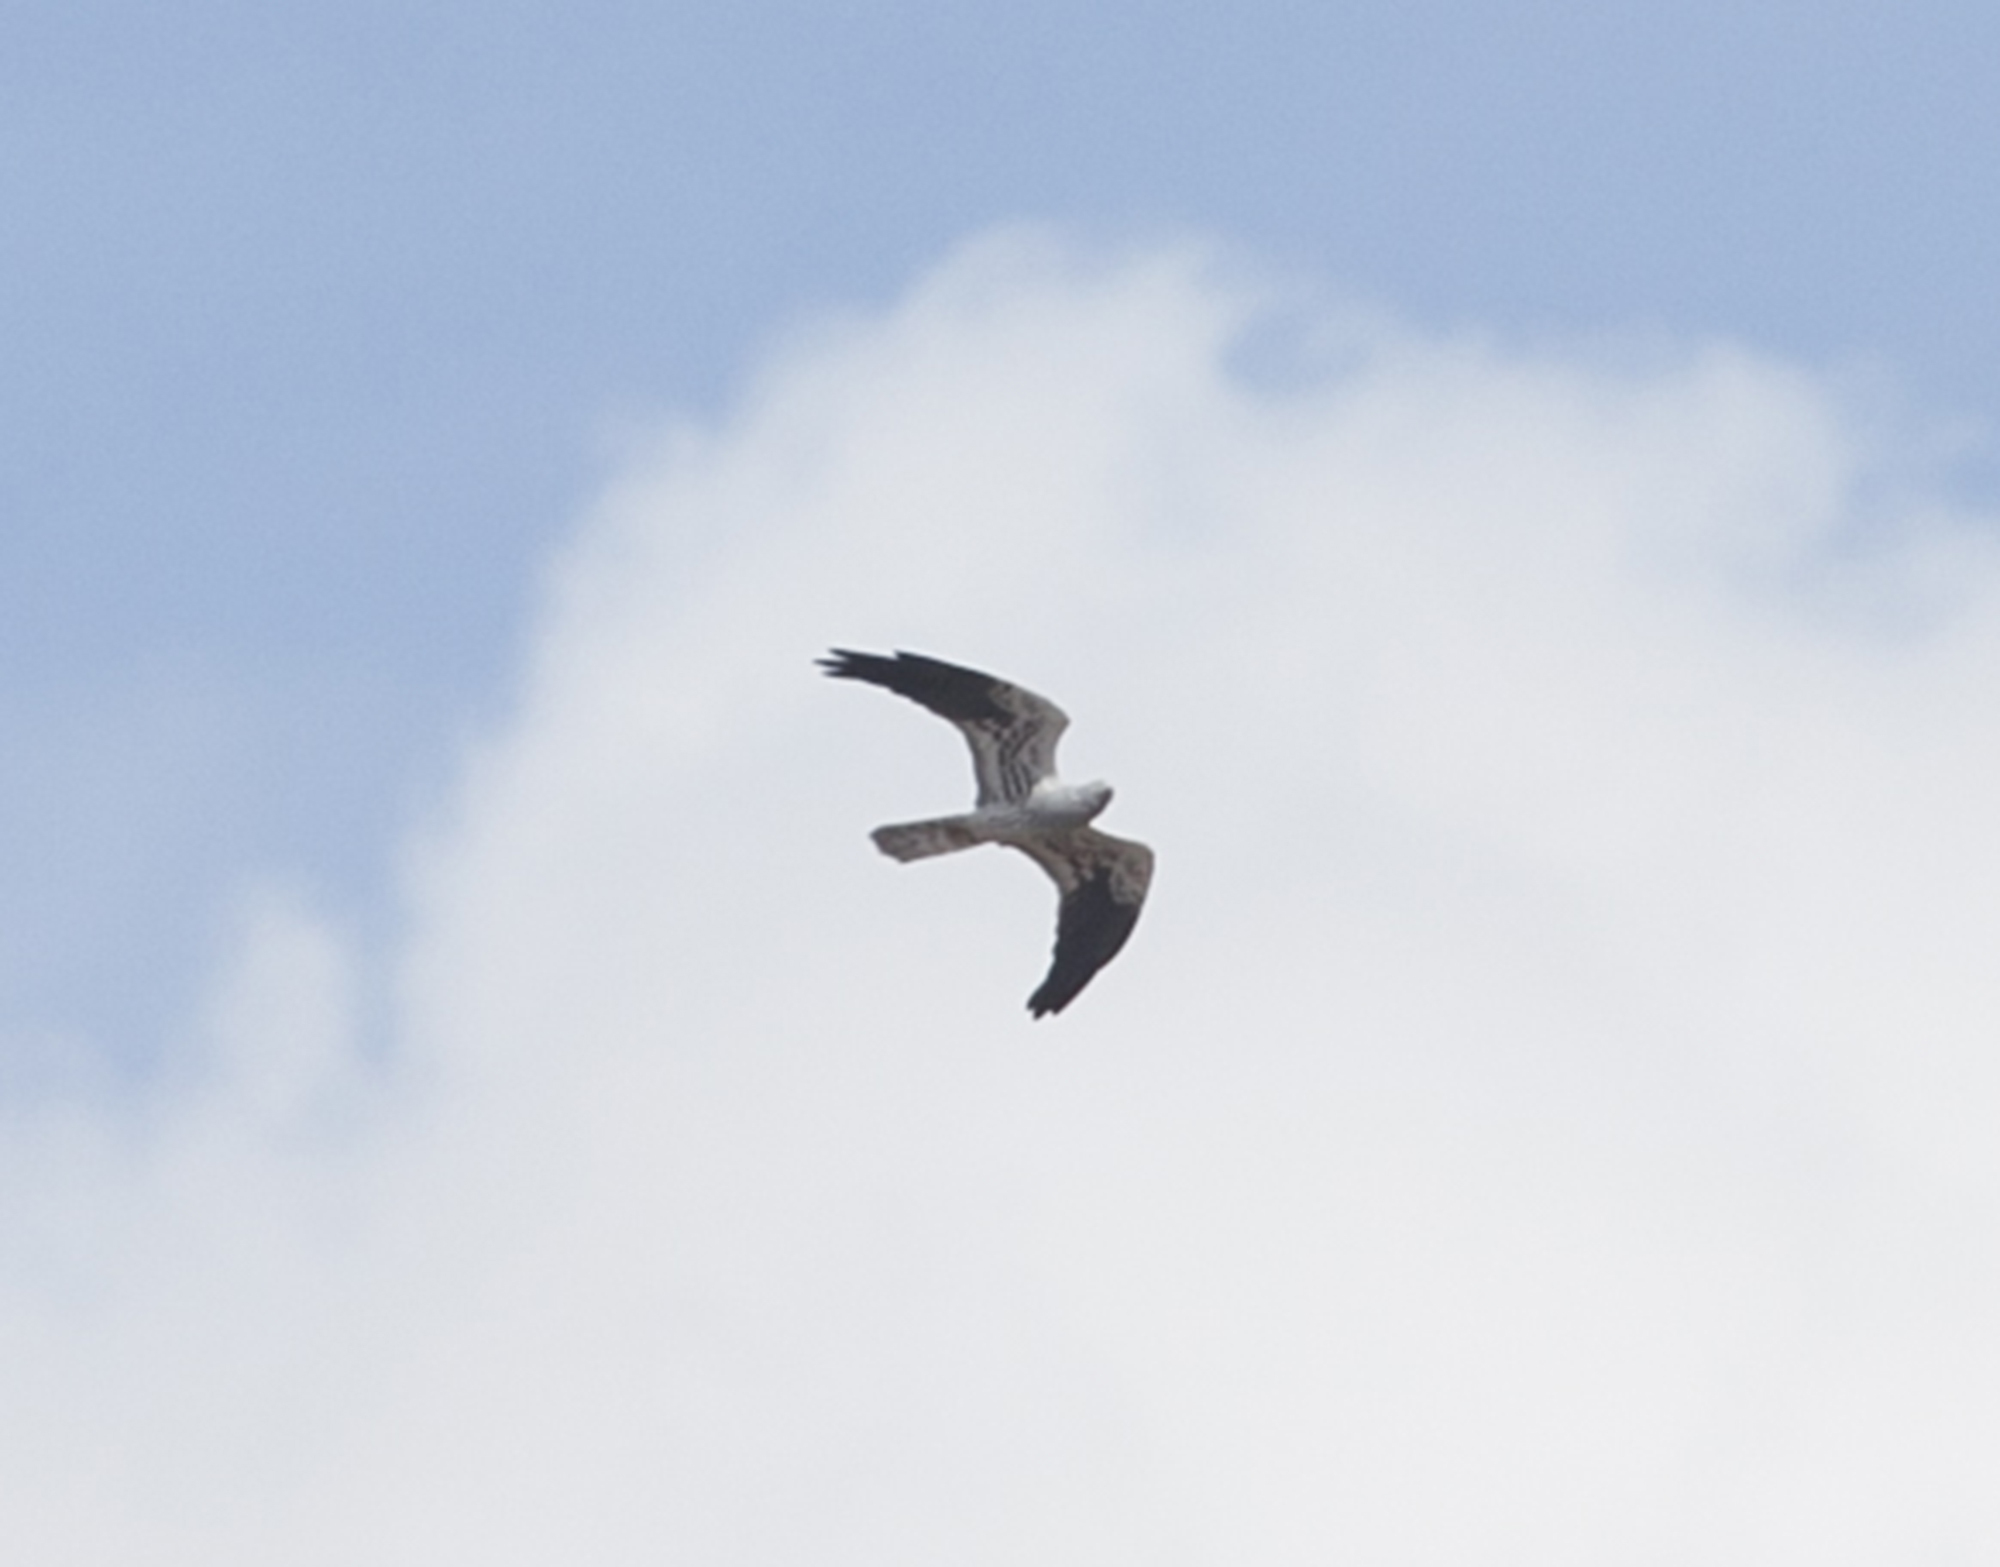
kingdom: Animalia
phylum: Chordata
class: Aves
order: Accipitriformes
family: Accipitridae
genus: Circus
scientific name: Circus pygargus
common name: Montagu's harrier
